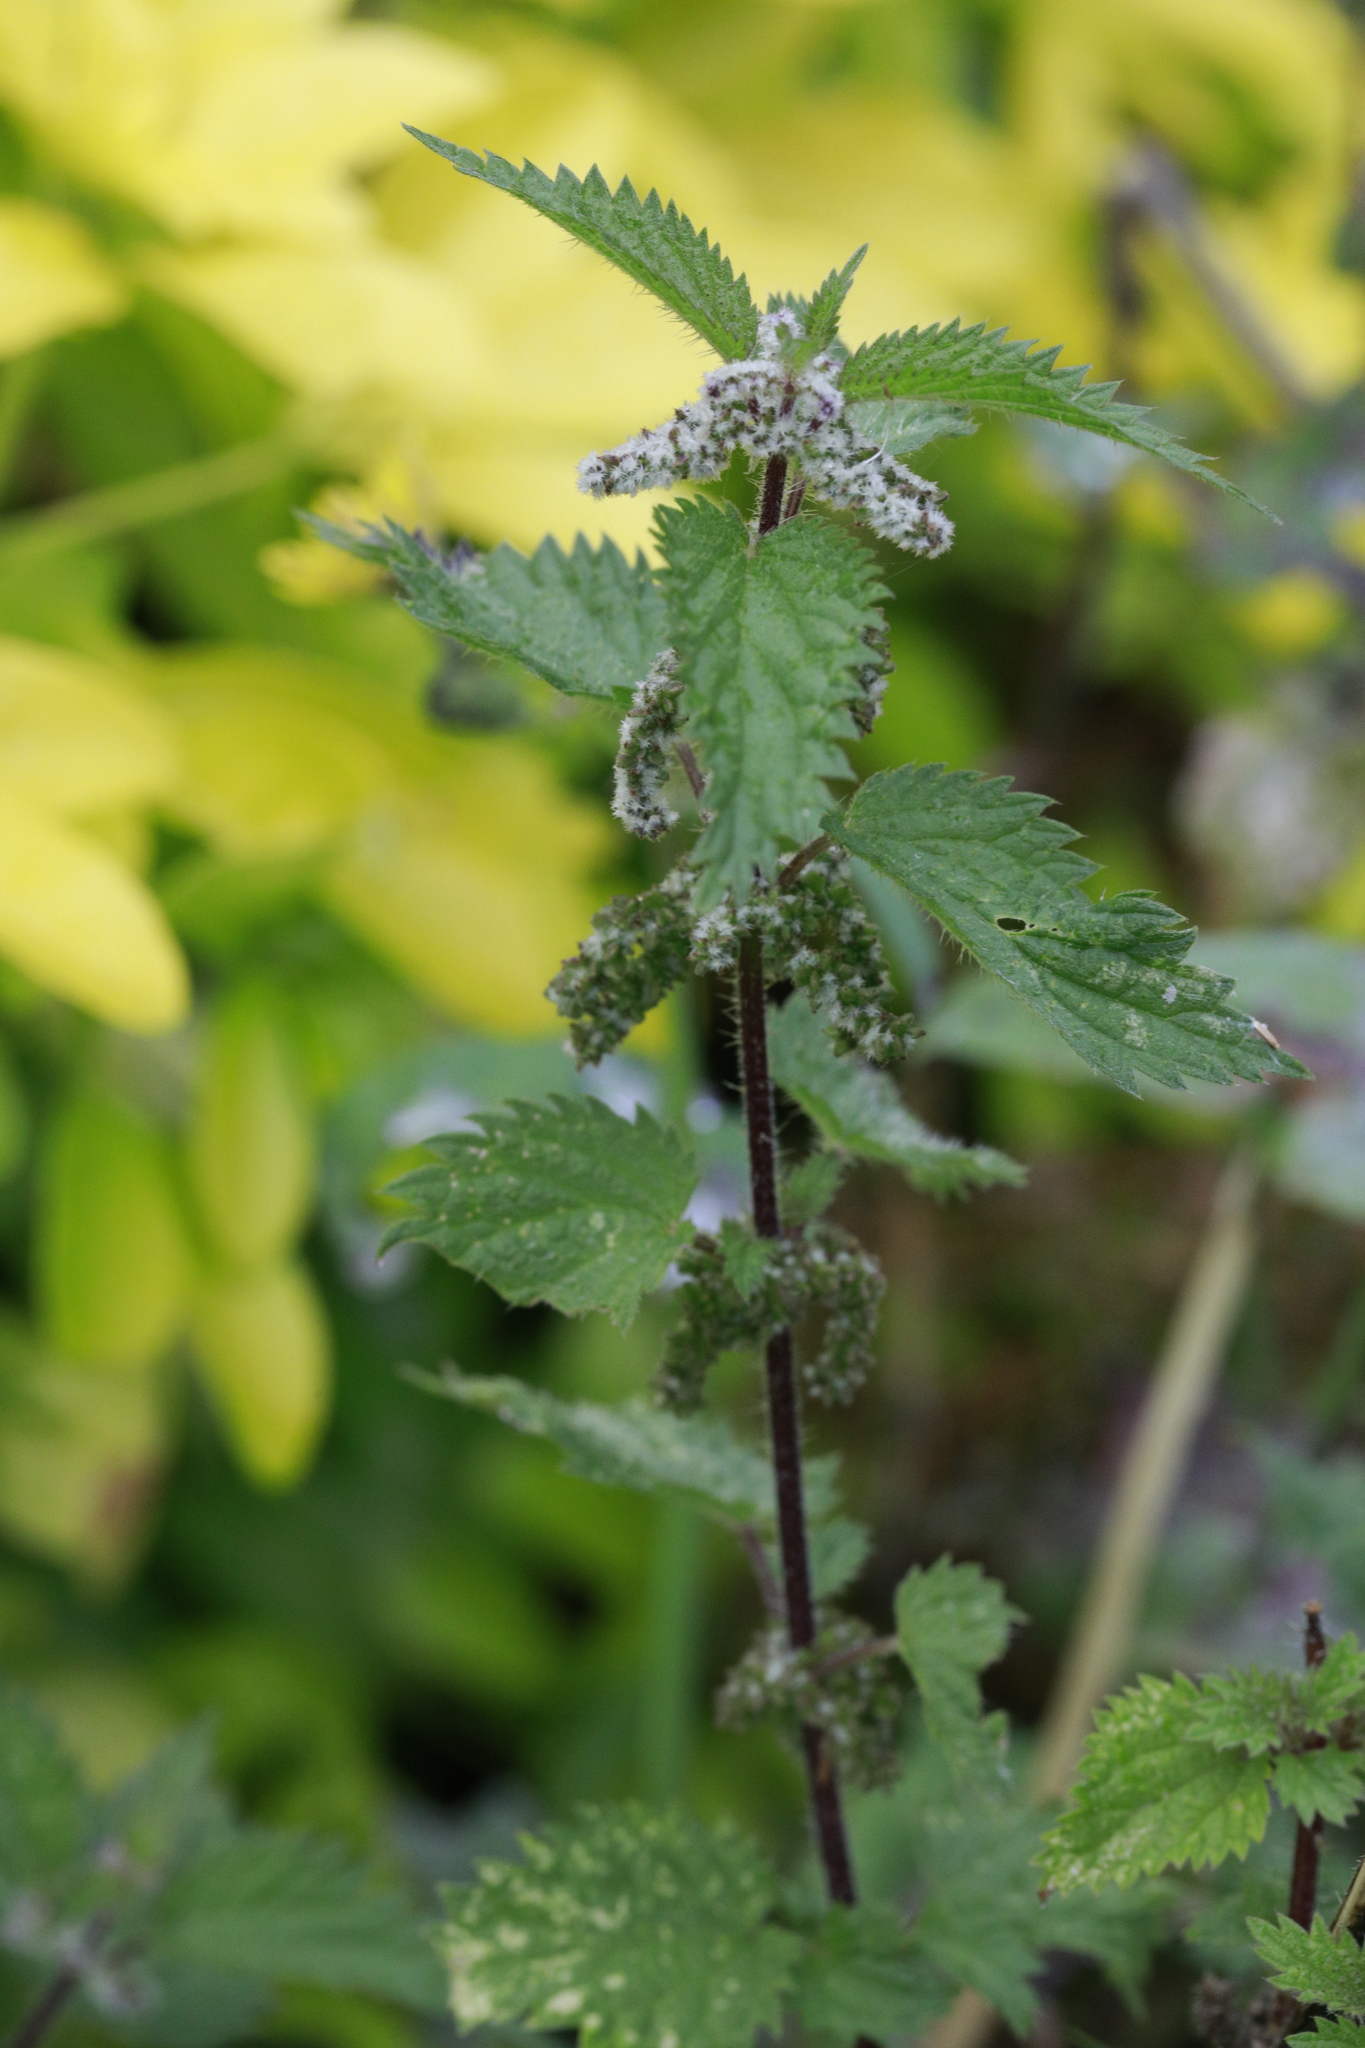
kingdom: Plantae
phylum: Tracheophyta
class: Magnoliopsida
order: Rosales
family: Urticaceae
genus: Urtica
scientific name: Urtica dioica
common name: Common nettle
